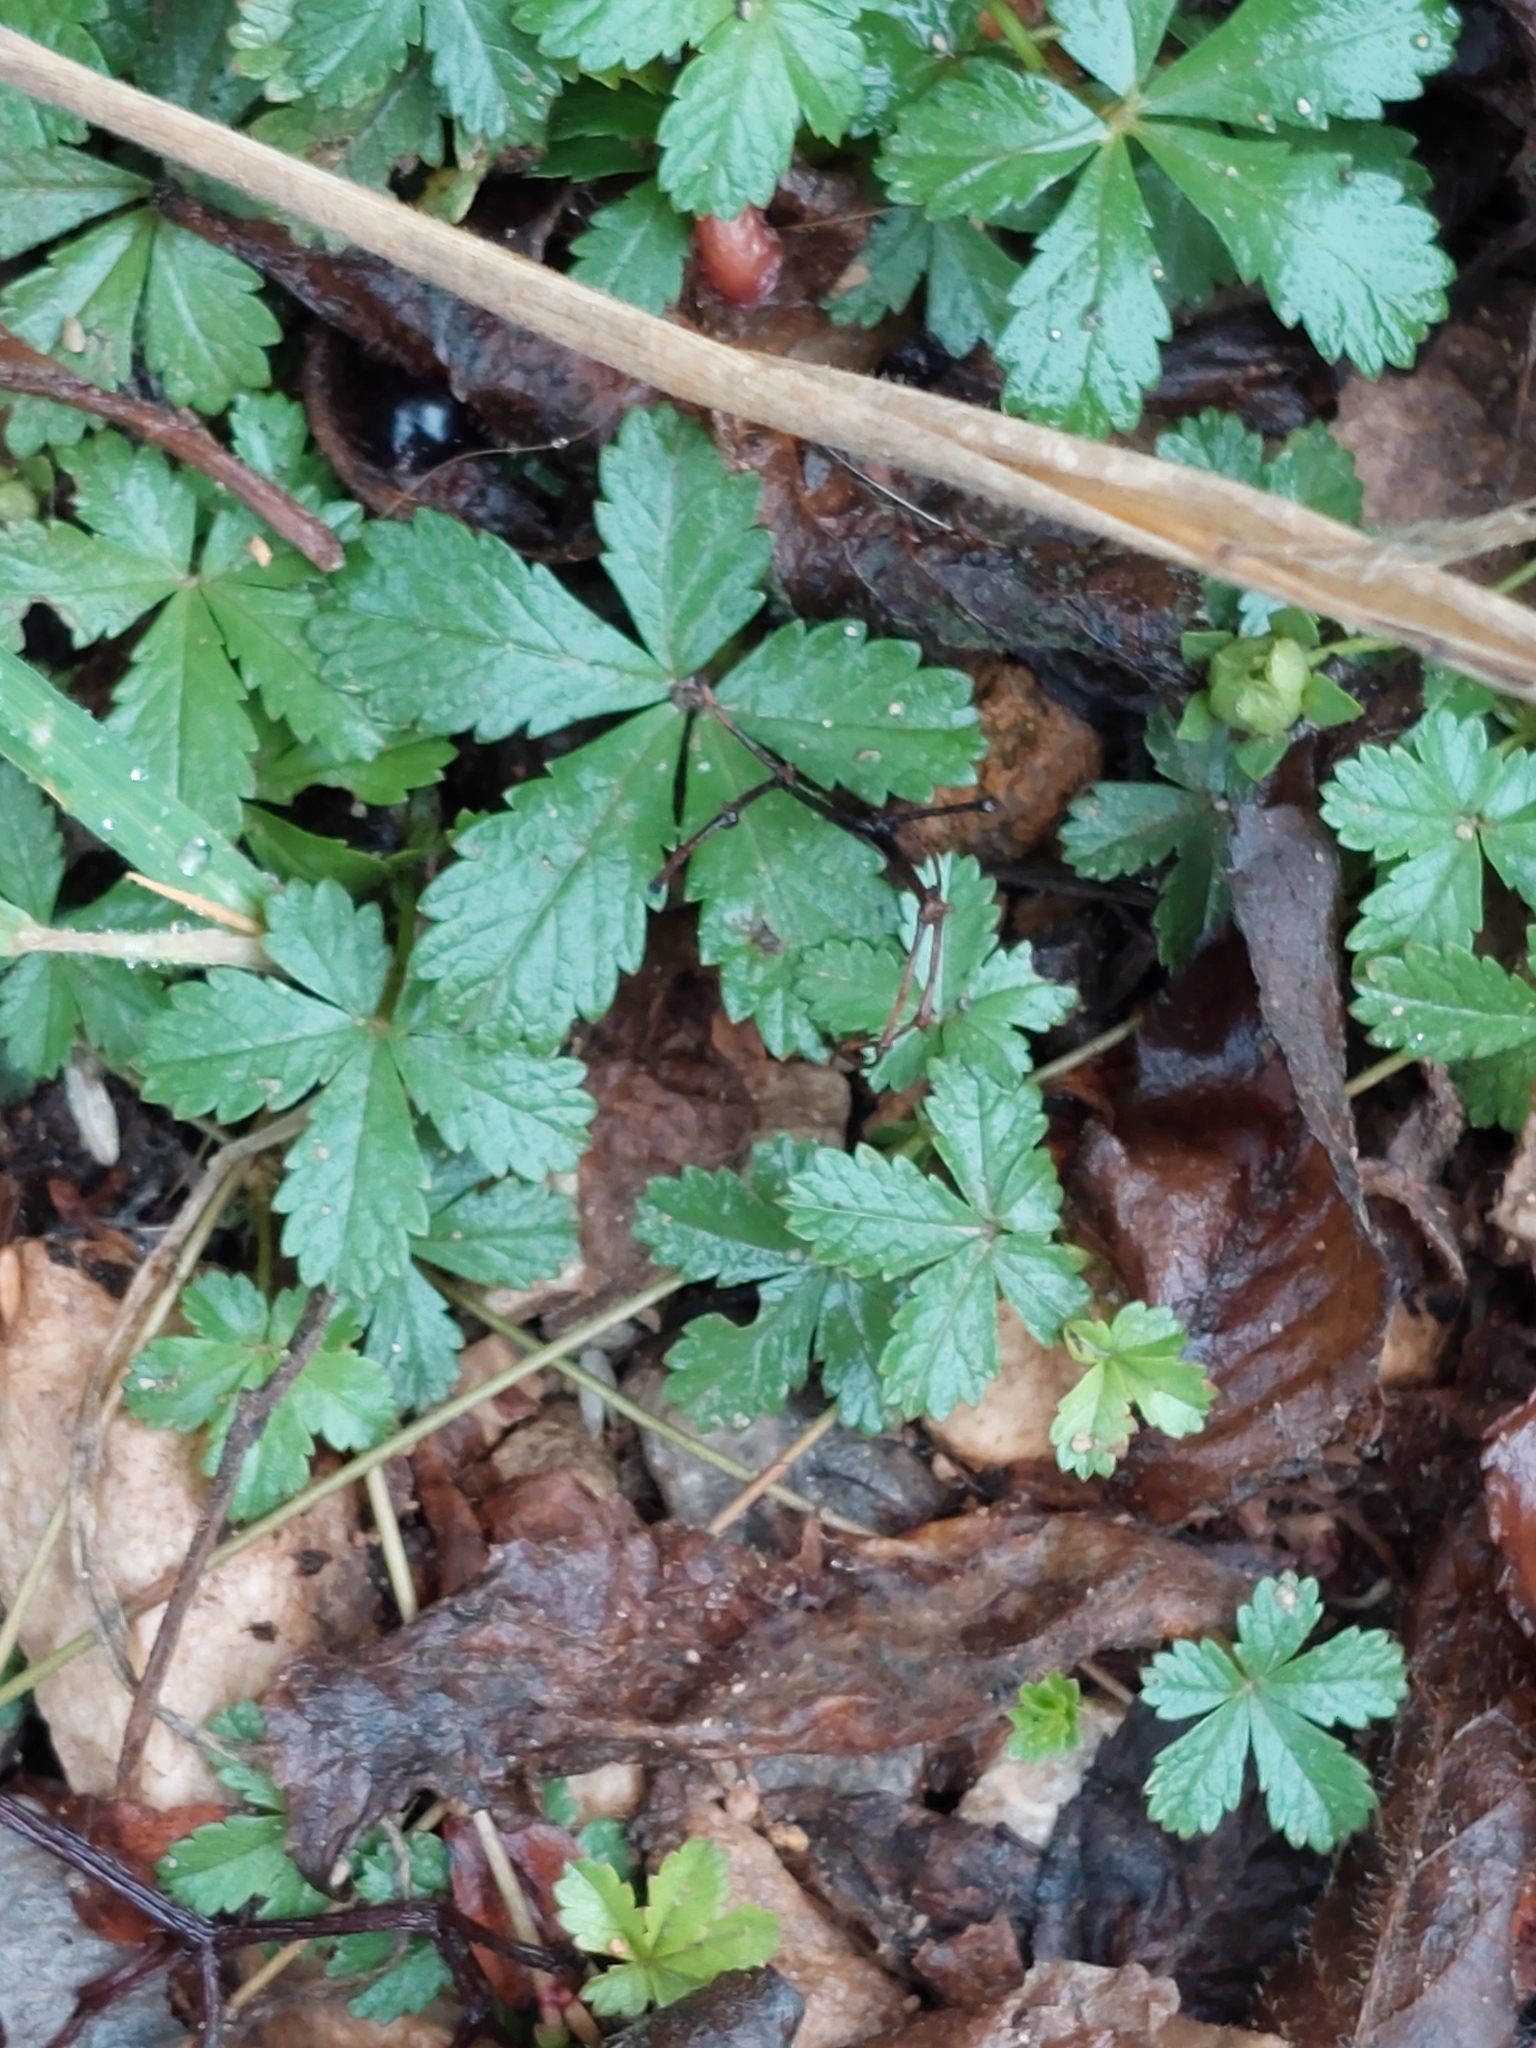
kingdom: Plantae
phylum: Tracheophyta
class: Magnoliopsida
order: Rosales
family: Rosaceae
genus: Potentilla
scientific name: Potentilla reptans
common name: Creeping cinquefoil
